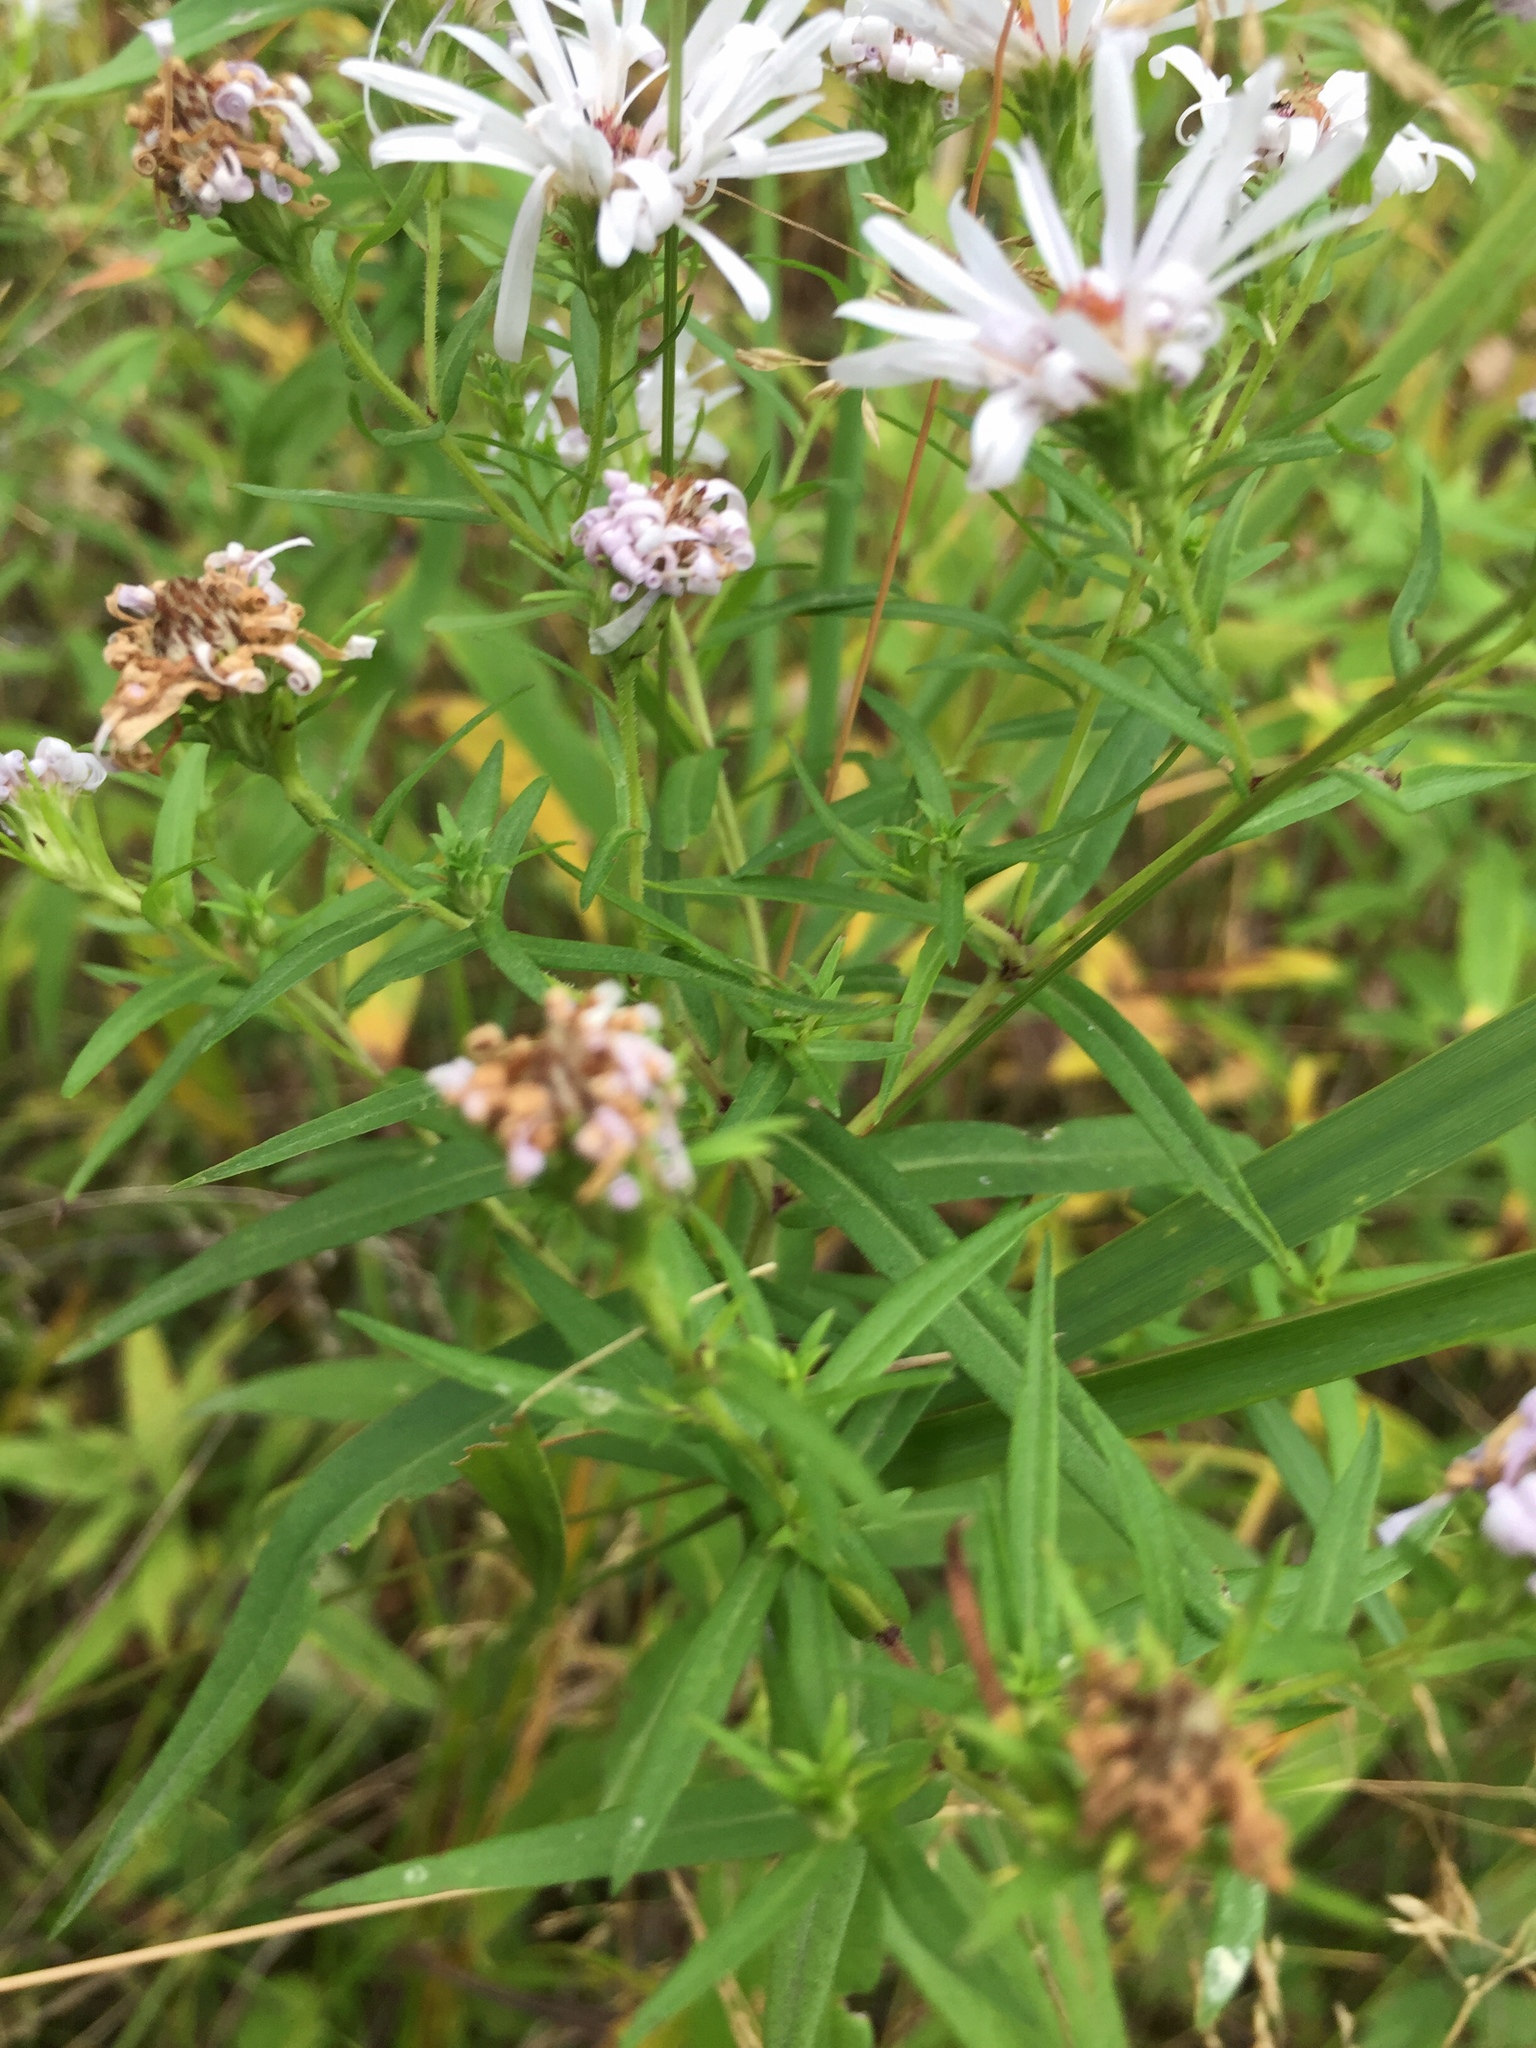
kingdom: Plantae
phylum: Tracheophyta
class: Magnoliopsida
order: Asterales
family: Asteraceae
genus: Symphyotrichum
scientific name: Symphyotrichum lanceolatum
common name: Panicled aster
